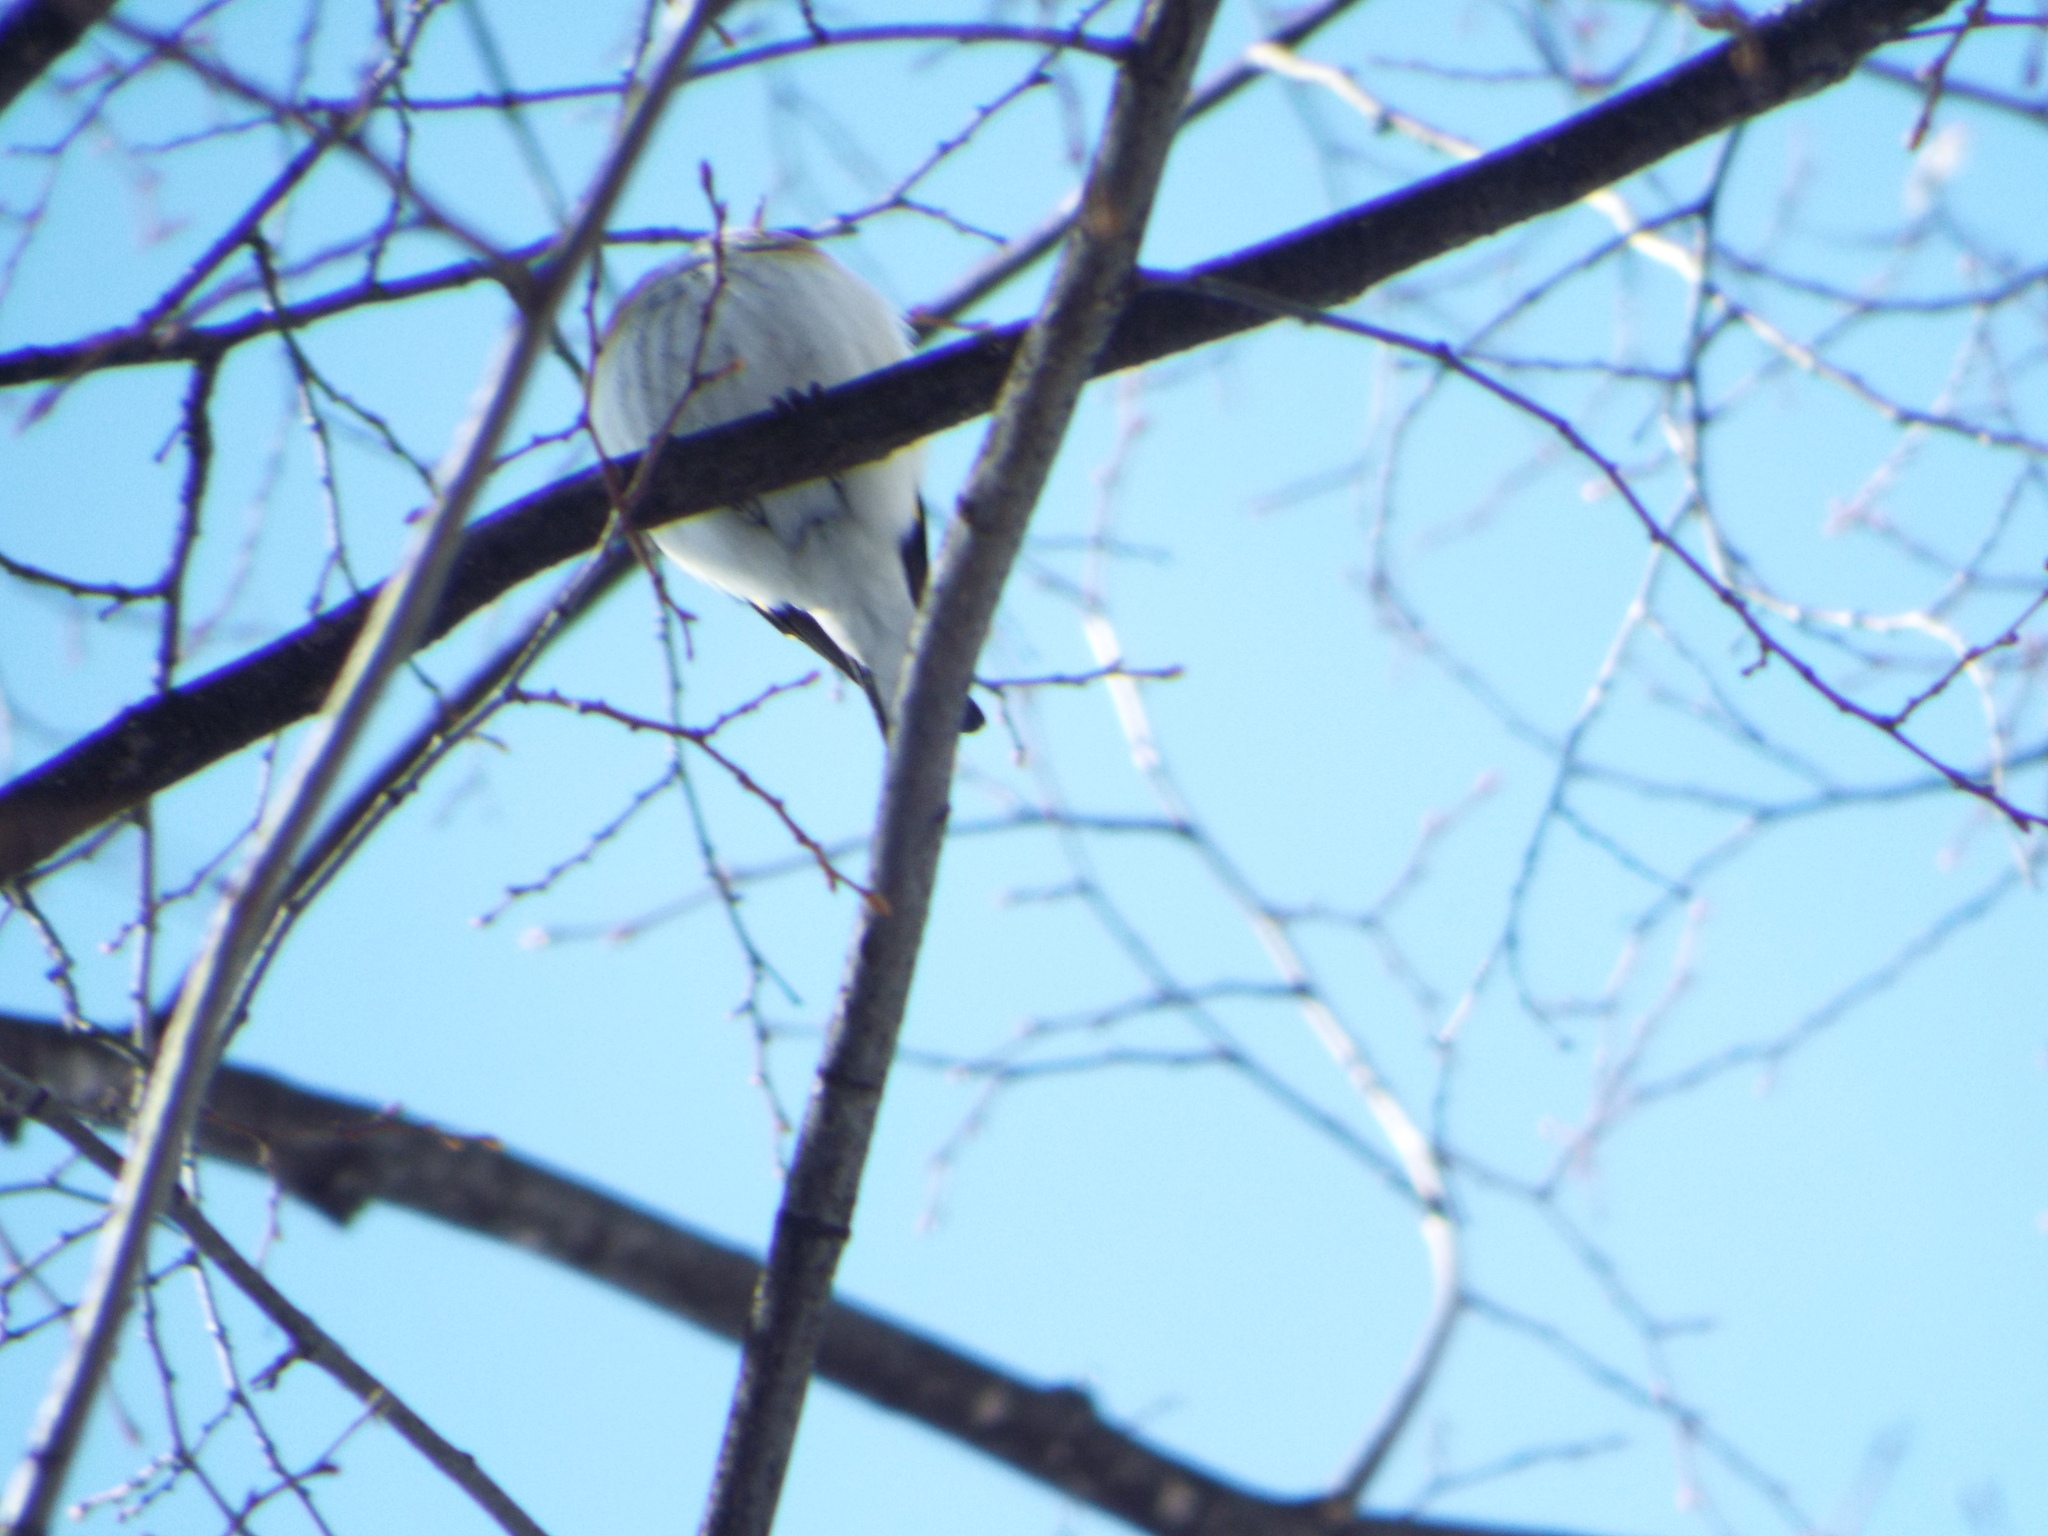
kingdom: Animalia
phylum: Chordata
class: Aves
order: Passeriformes
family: Fringillidae
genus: Carduelis
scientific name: Carduelis carduelis
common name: European goldfinch
